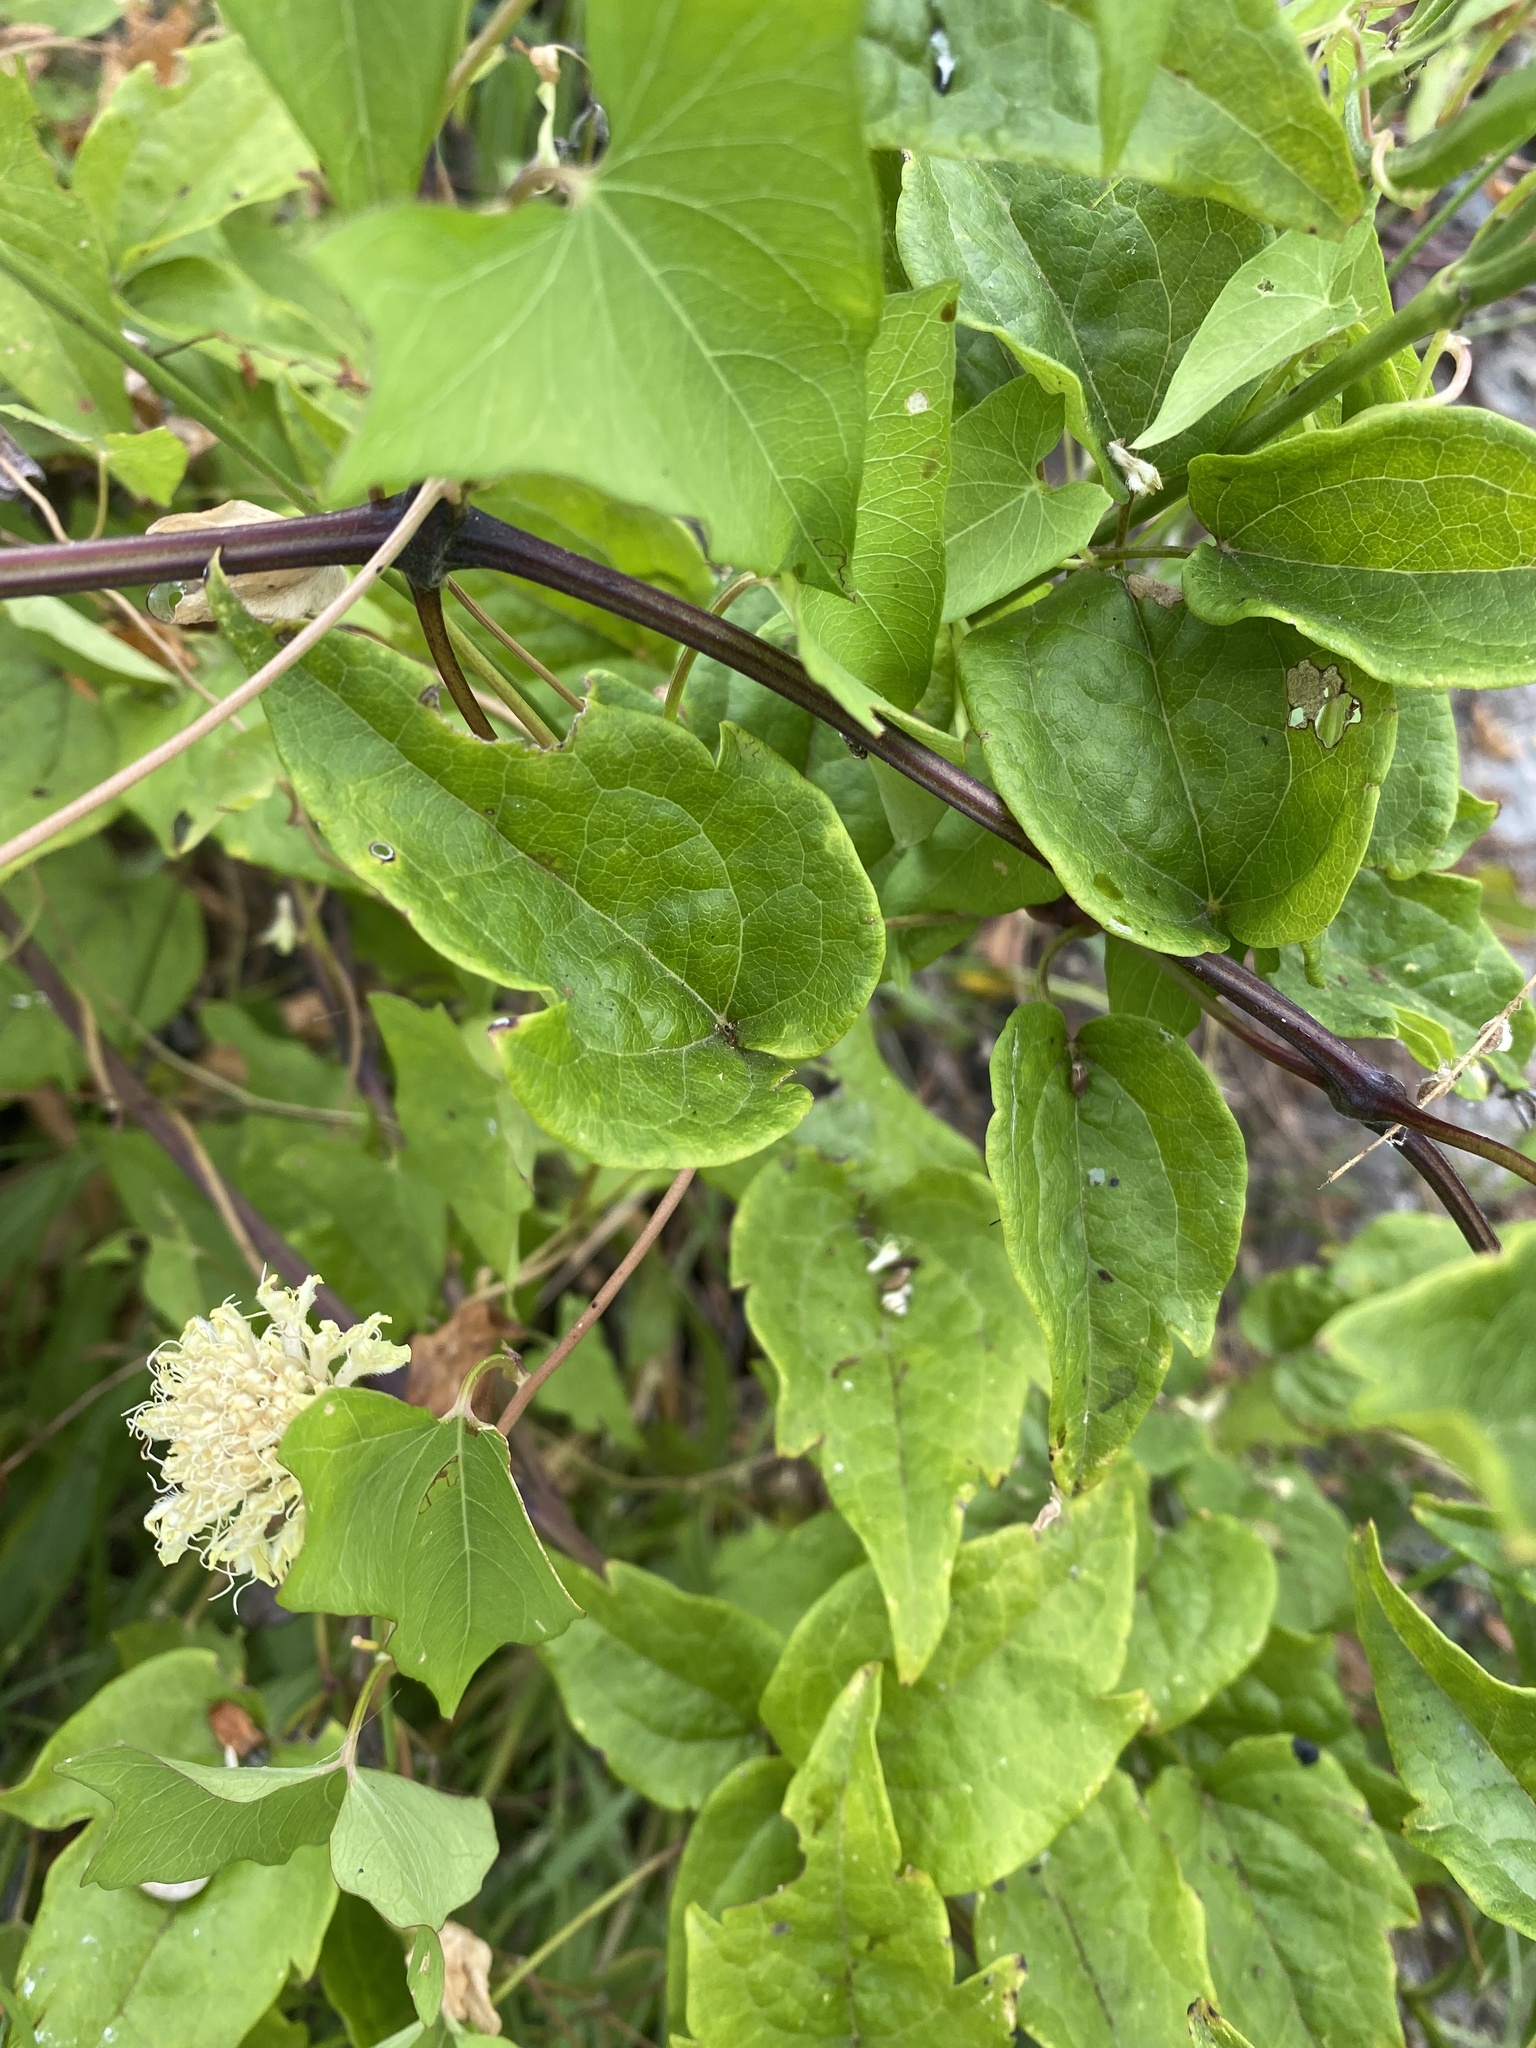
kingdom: Plantae
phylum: Tracheophyta
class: Magnoliopsida
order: Ranunculales
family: Ranunculaceae
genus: Clematis
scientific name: Clematis vitalba
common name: Evergreen clematis
